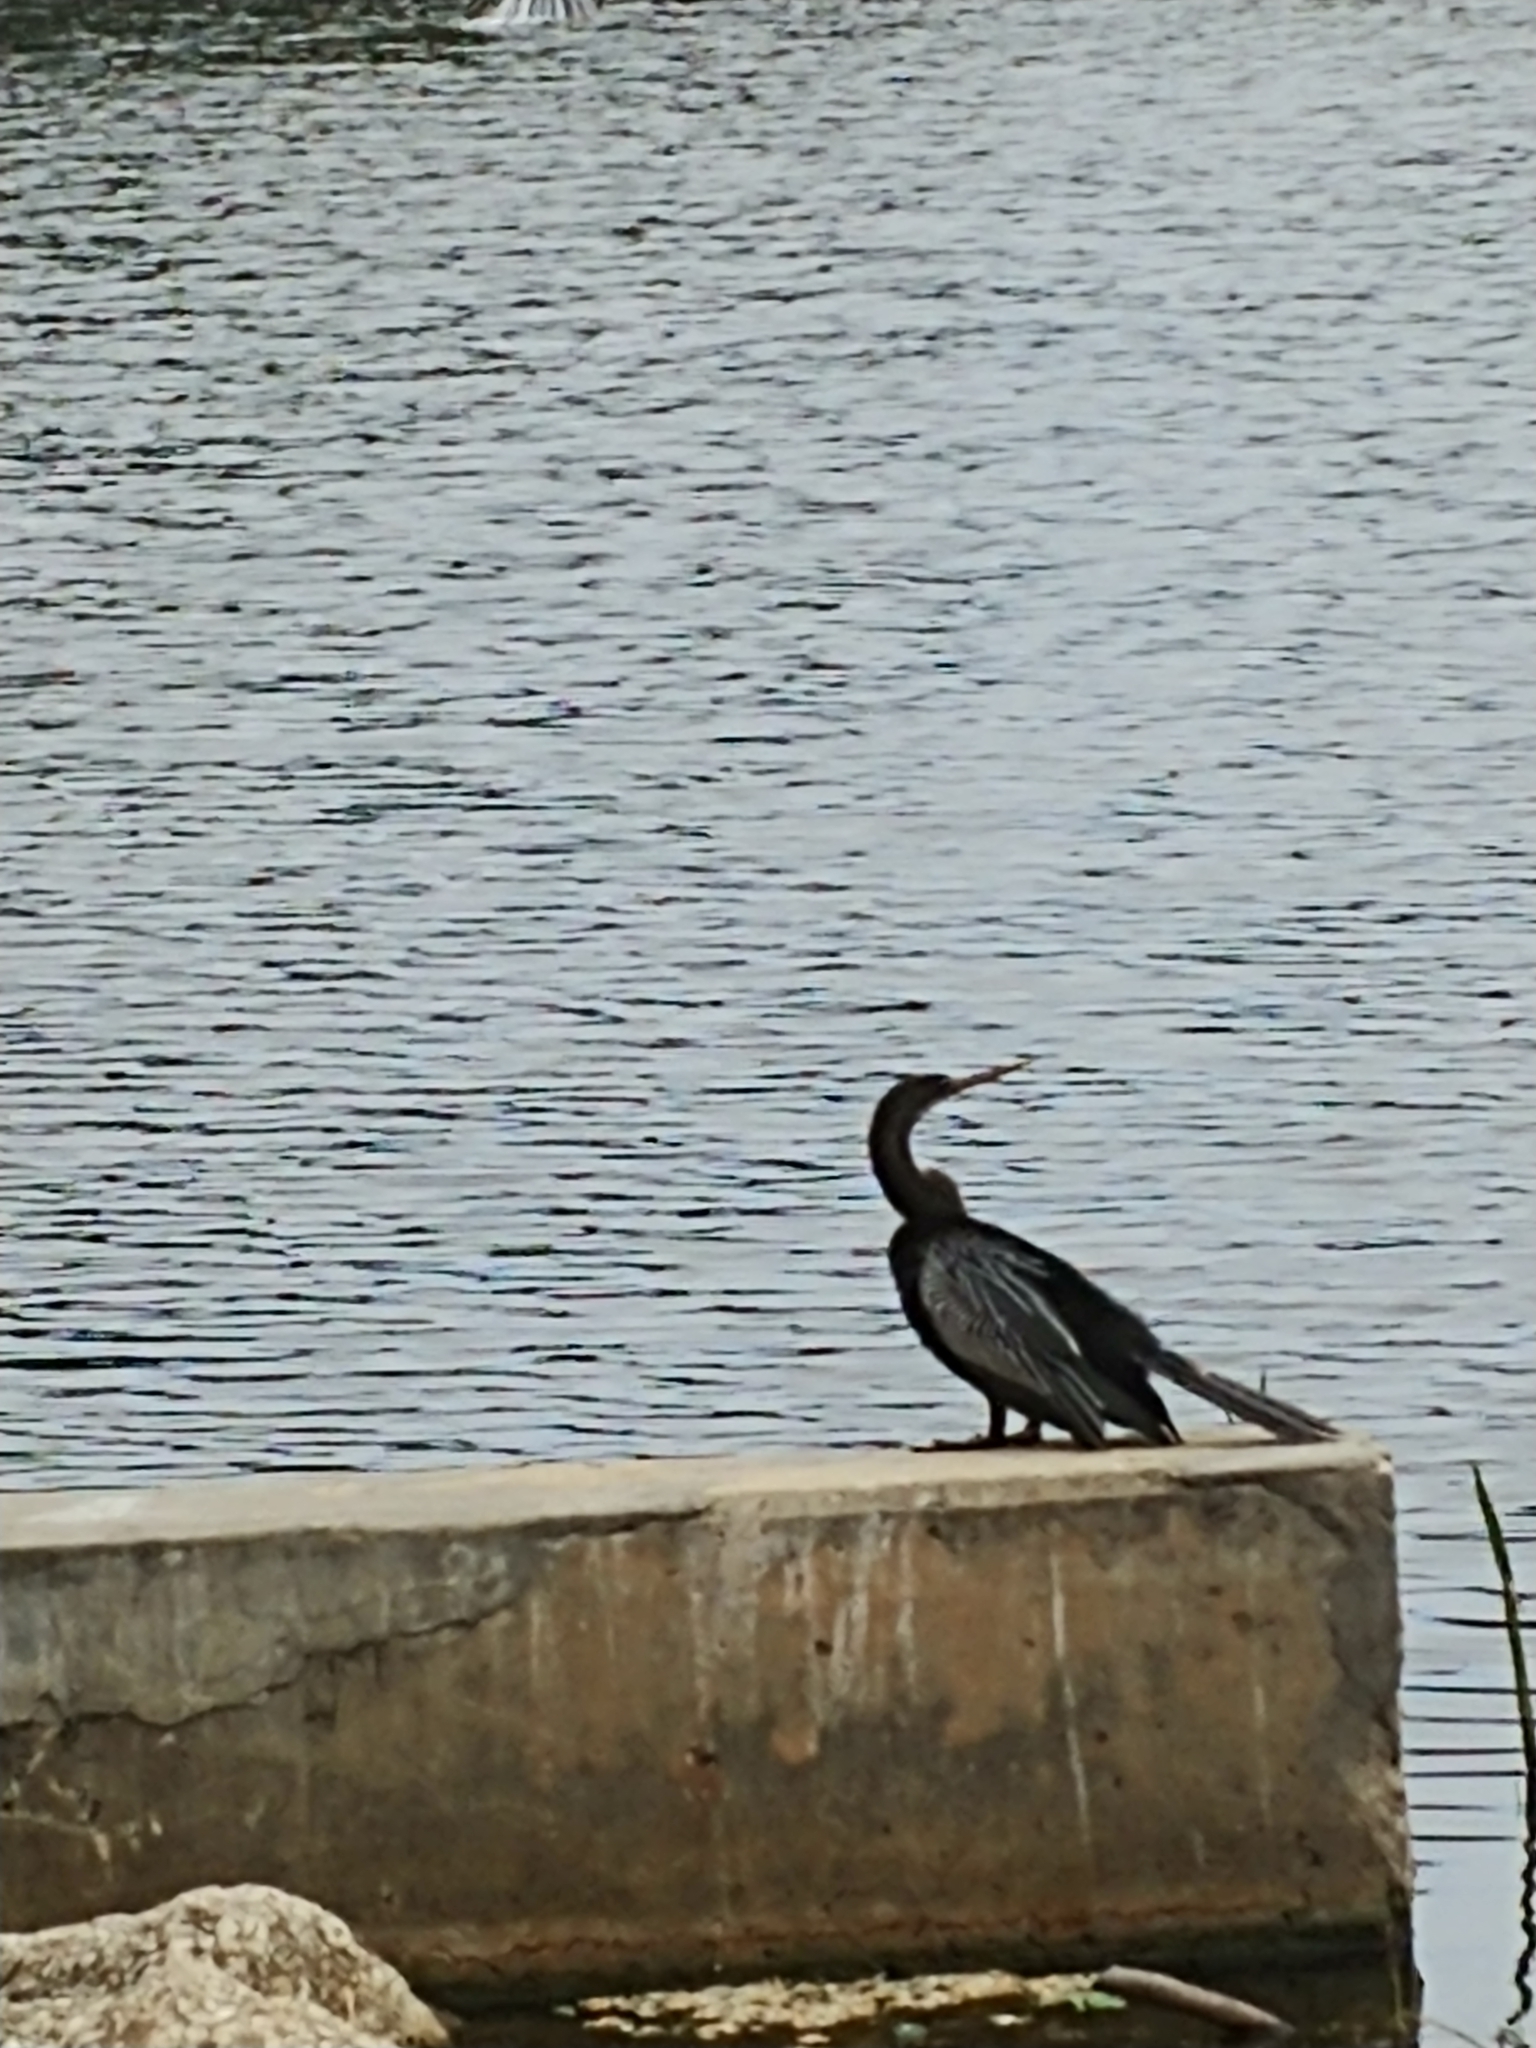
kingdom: Animalia
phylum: Chordata
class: Aves
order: Suliformes
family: Anhingidae
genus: Anhinga
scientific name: Anhinga anhinga
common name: Anhinga
